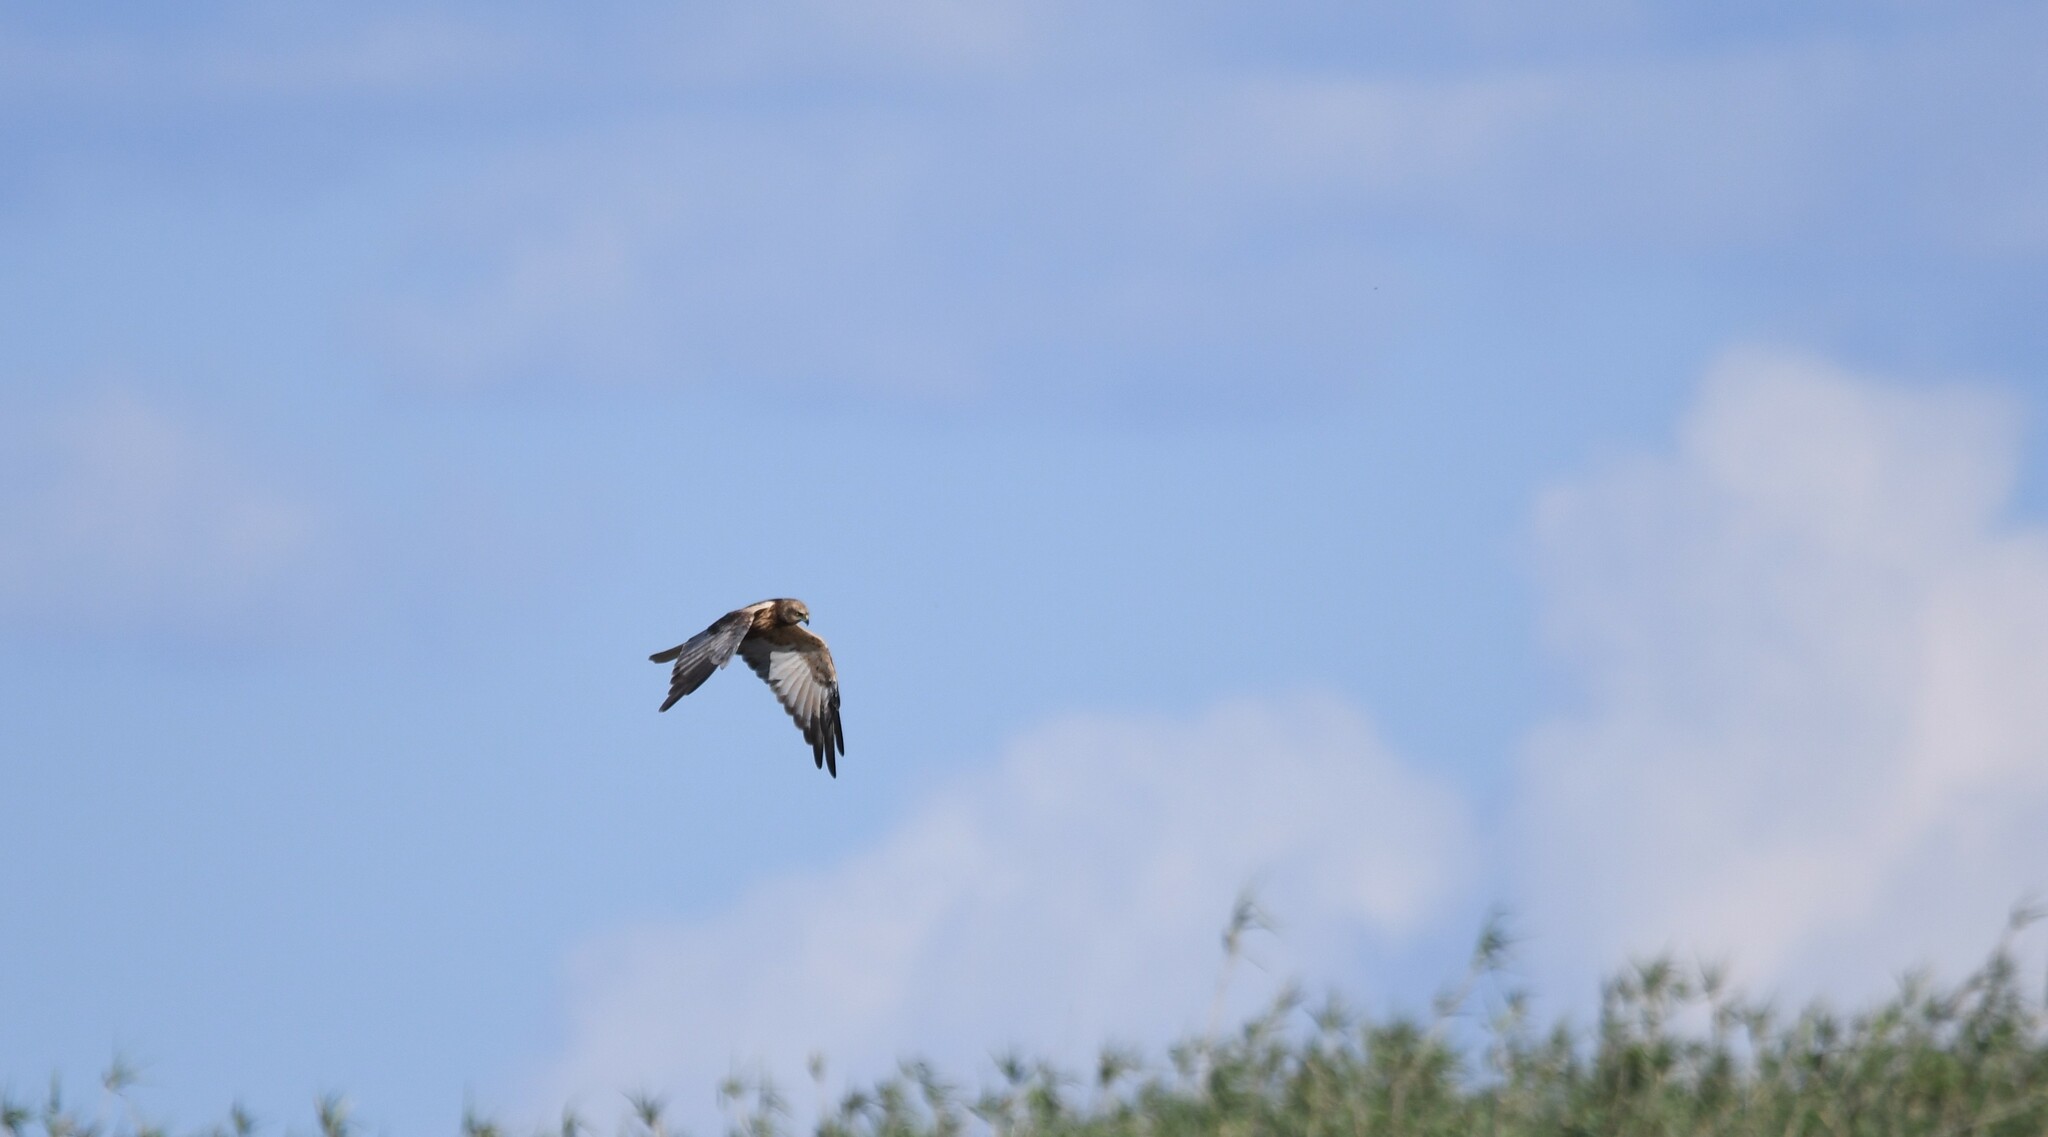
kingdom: Animalia
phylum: Chordata
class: Aves
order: Accipitriformes
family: Accipitridae
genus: Circus
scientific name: Circus aeruginosus
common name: Western marsh harrier
